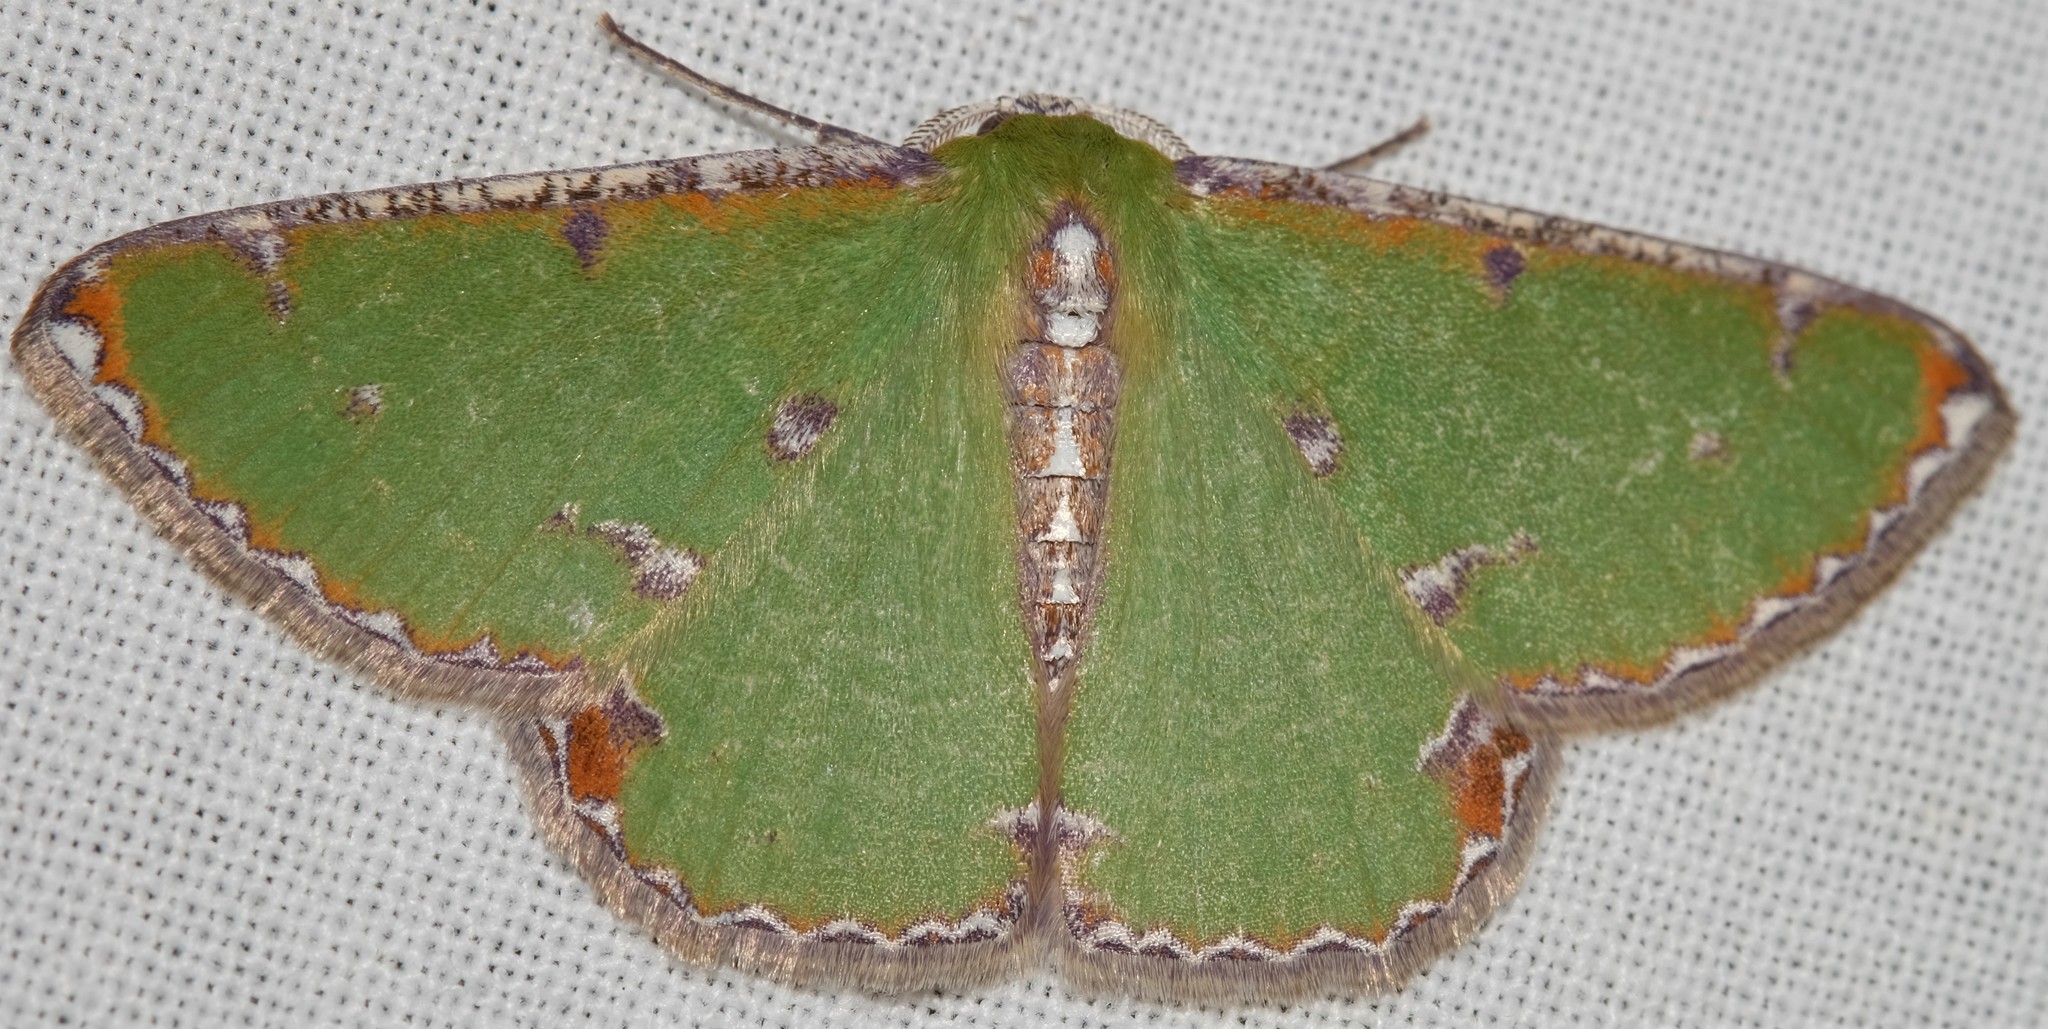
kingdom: Animalia
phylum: Arthropoda
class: Insecta
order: Lepidoptera
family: Geometridae
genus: Eucyclodes
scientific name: Eucyclodes buprestaria
